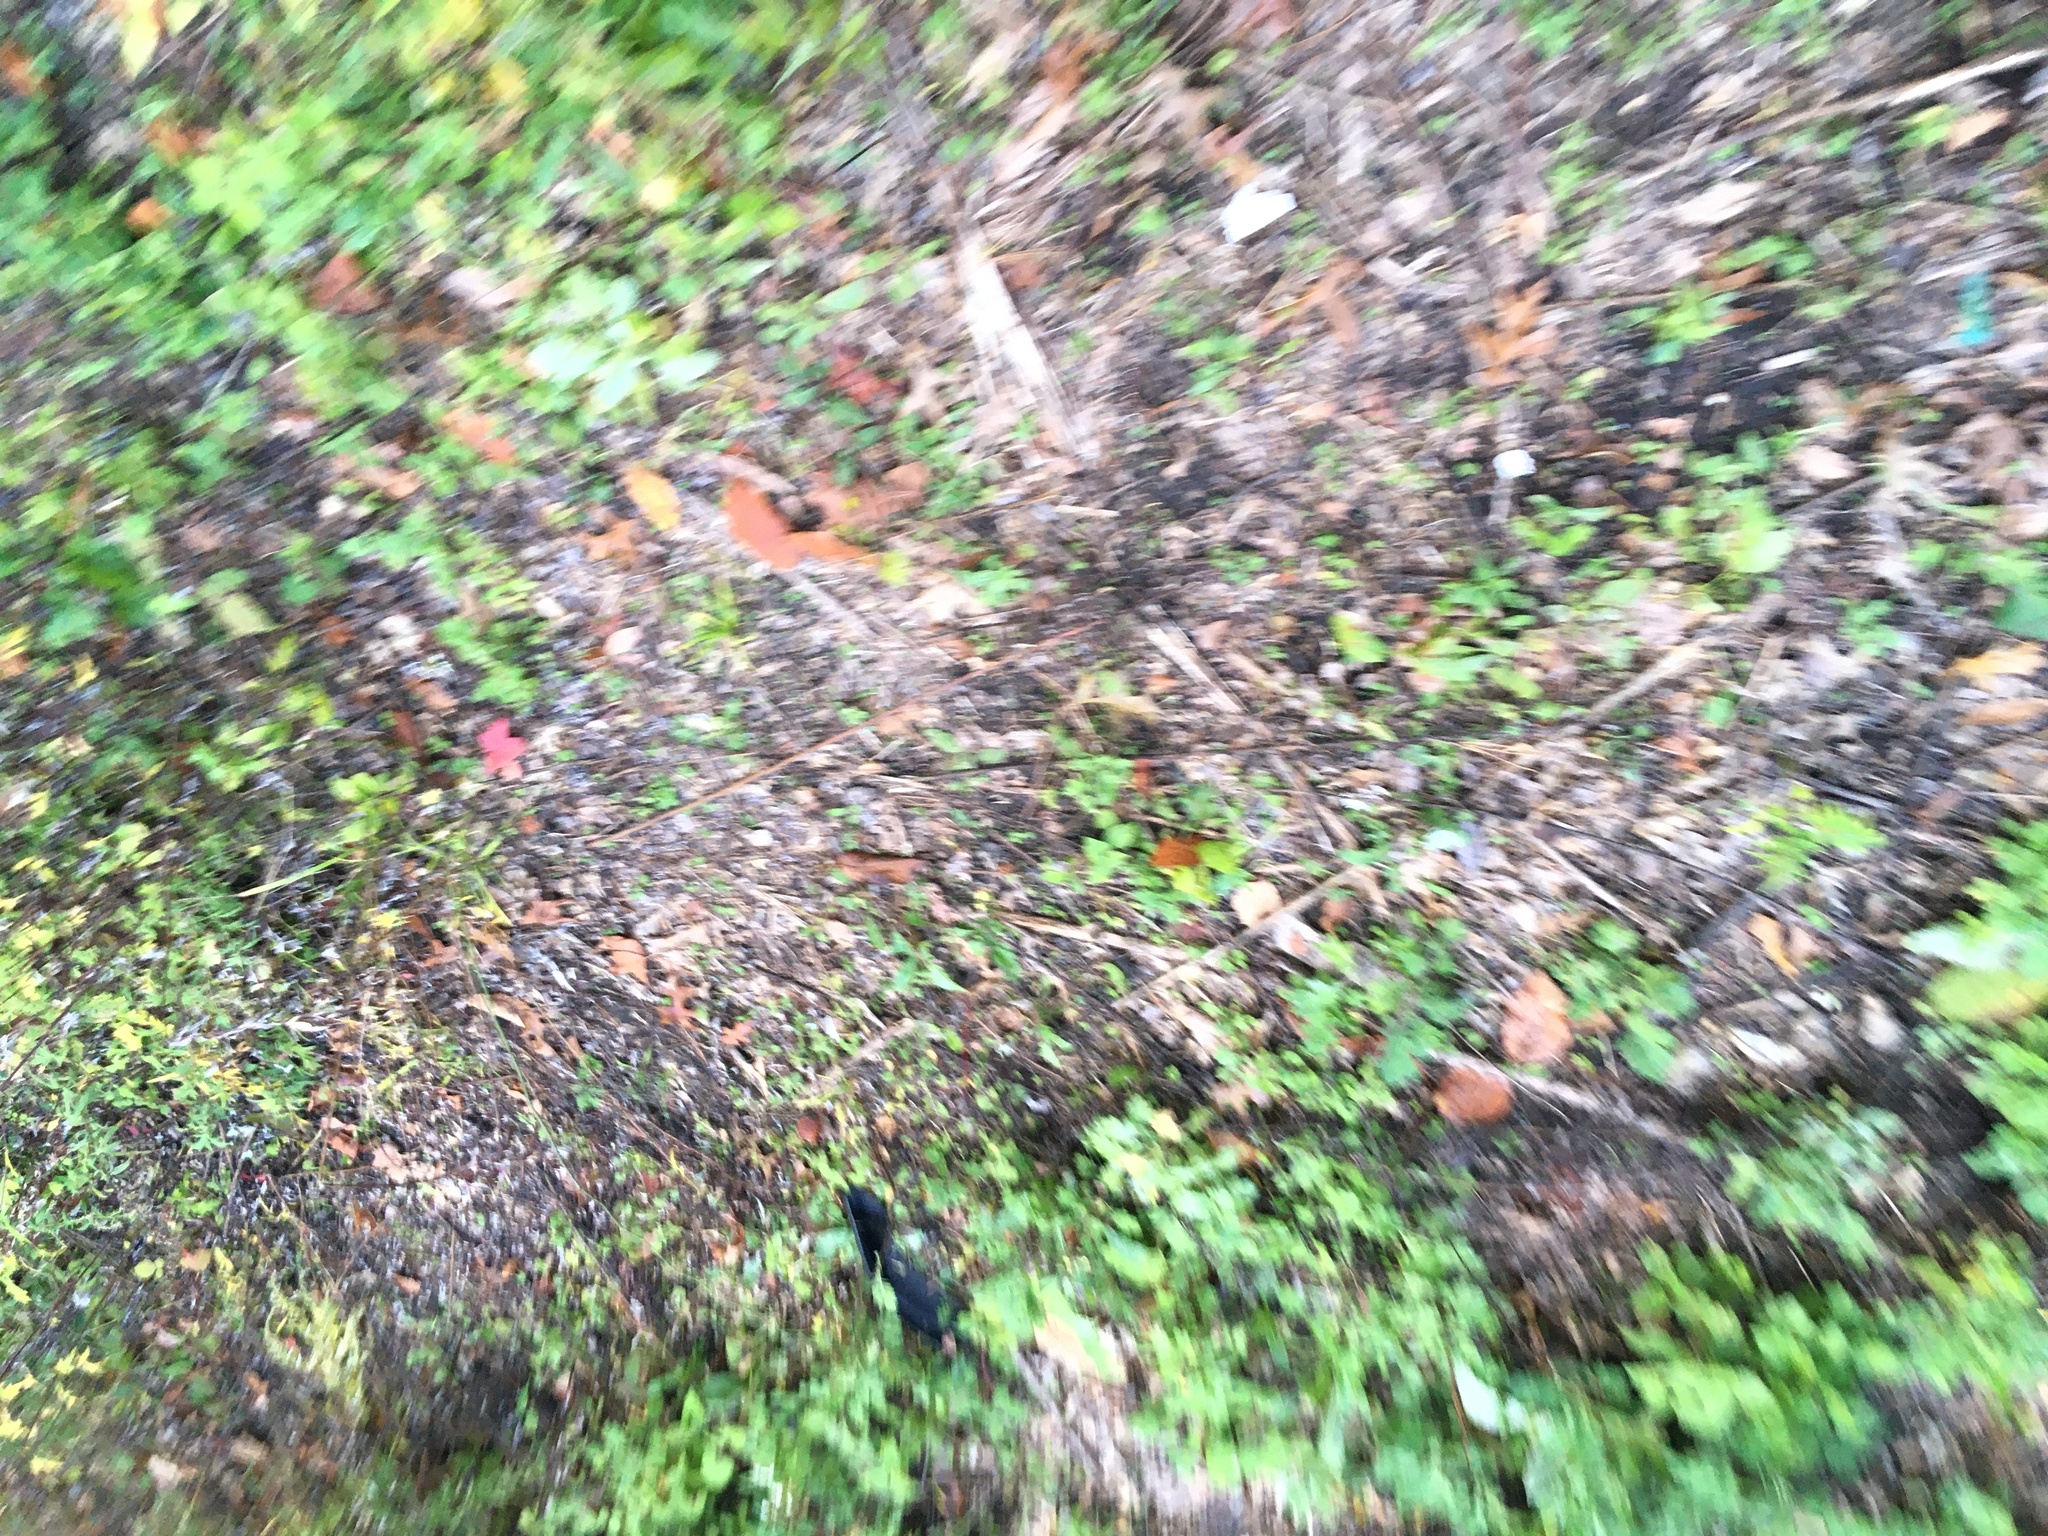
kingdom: Plantae
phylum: Tracheophyta
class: Magnoliopsida
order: Asterales
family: Asteraceae
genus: Artemisia
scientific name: Artemisia vulgaris
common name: Mugwort
